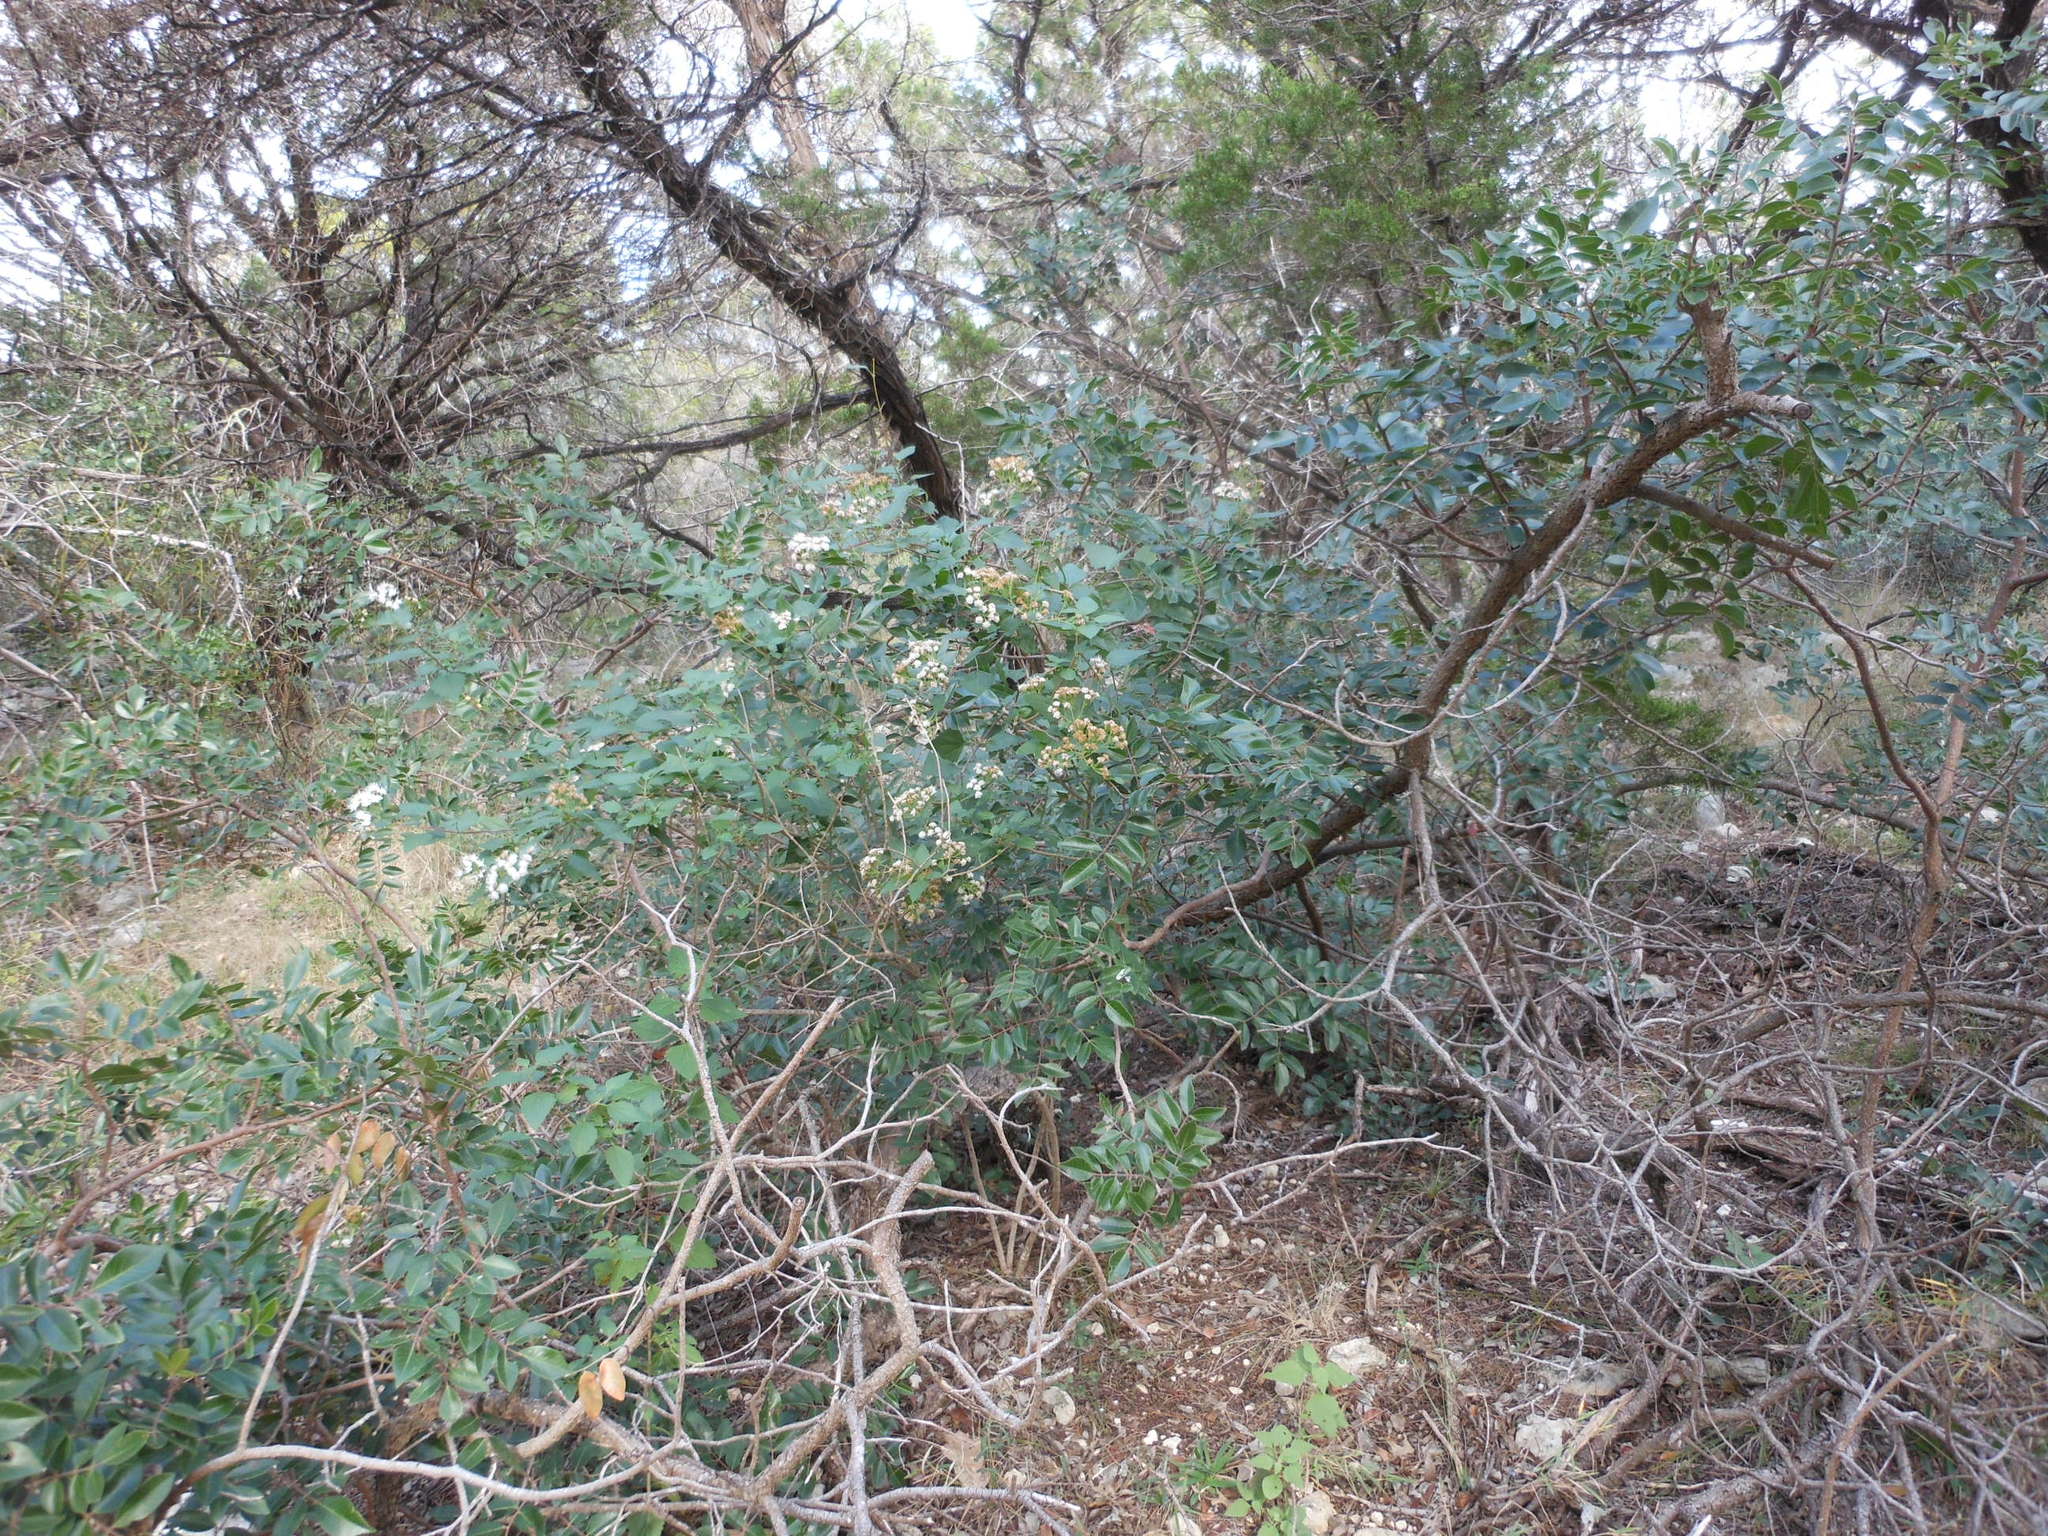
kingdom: Plantae
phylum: Tracheophyta
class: Magnoliopsida
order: Asterales
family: Asteraceae
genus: Ageratina
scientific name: Ageratina havanensis
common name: Havana snakeroot
